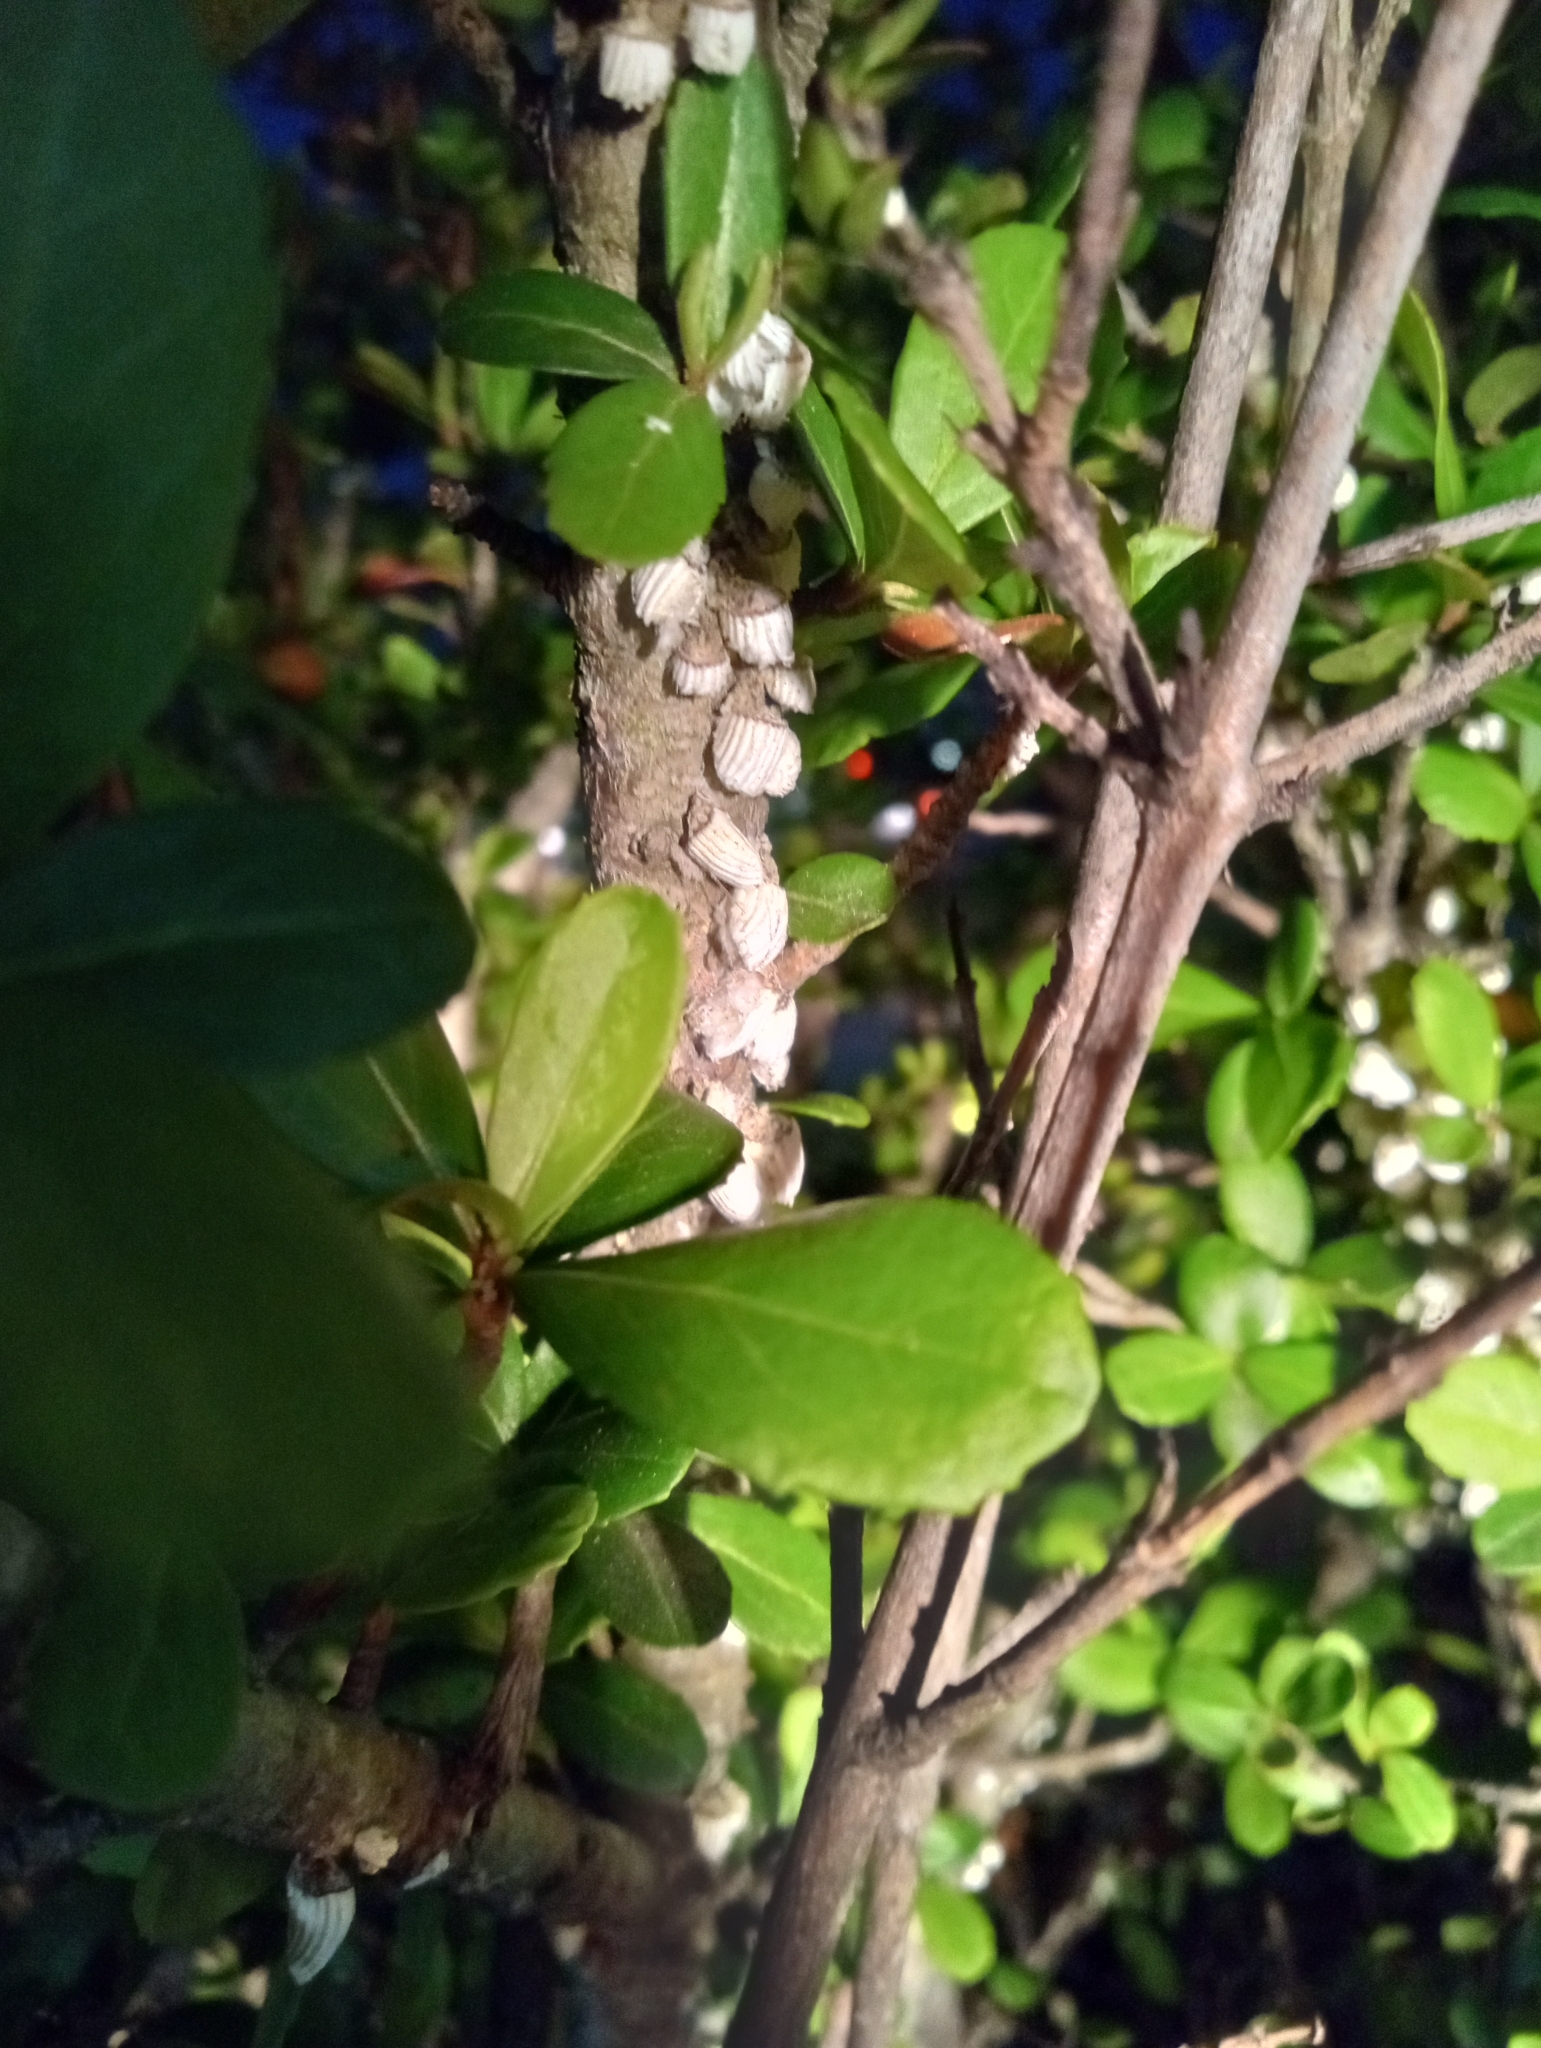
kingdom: Animalia
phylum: Arthropoda
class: Insecta
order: Hemiptera
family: Margarodidae
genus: Icerya
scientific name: Icerya purchasi
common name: Cottony cushion scale
